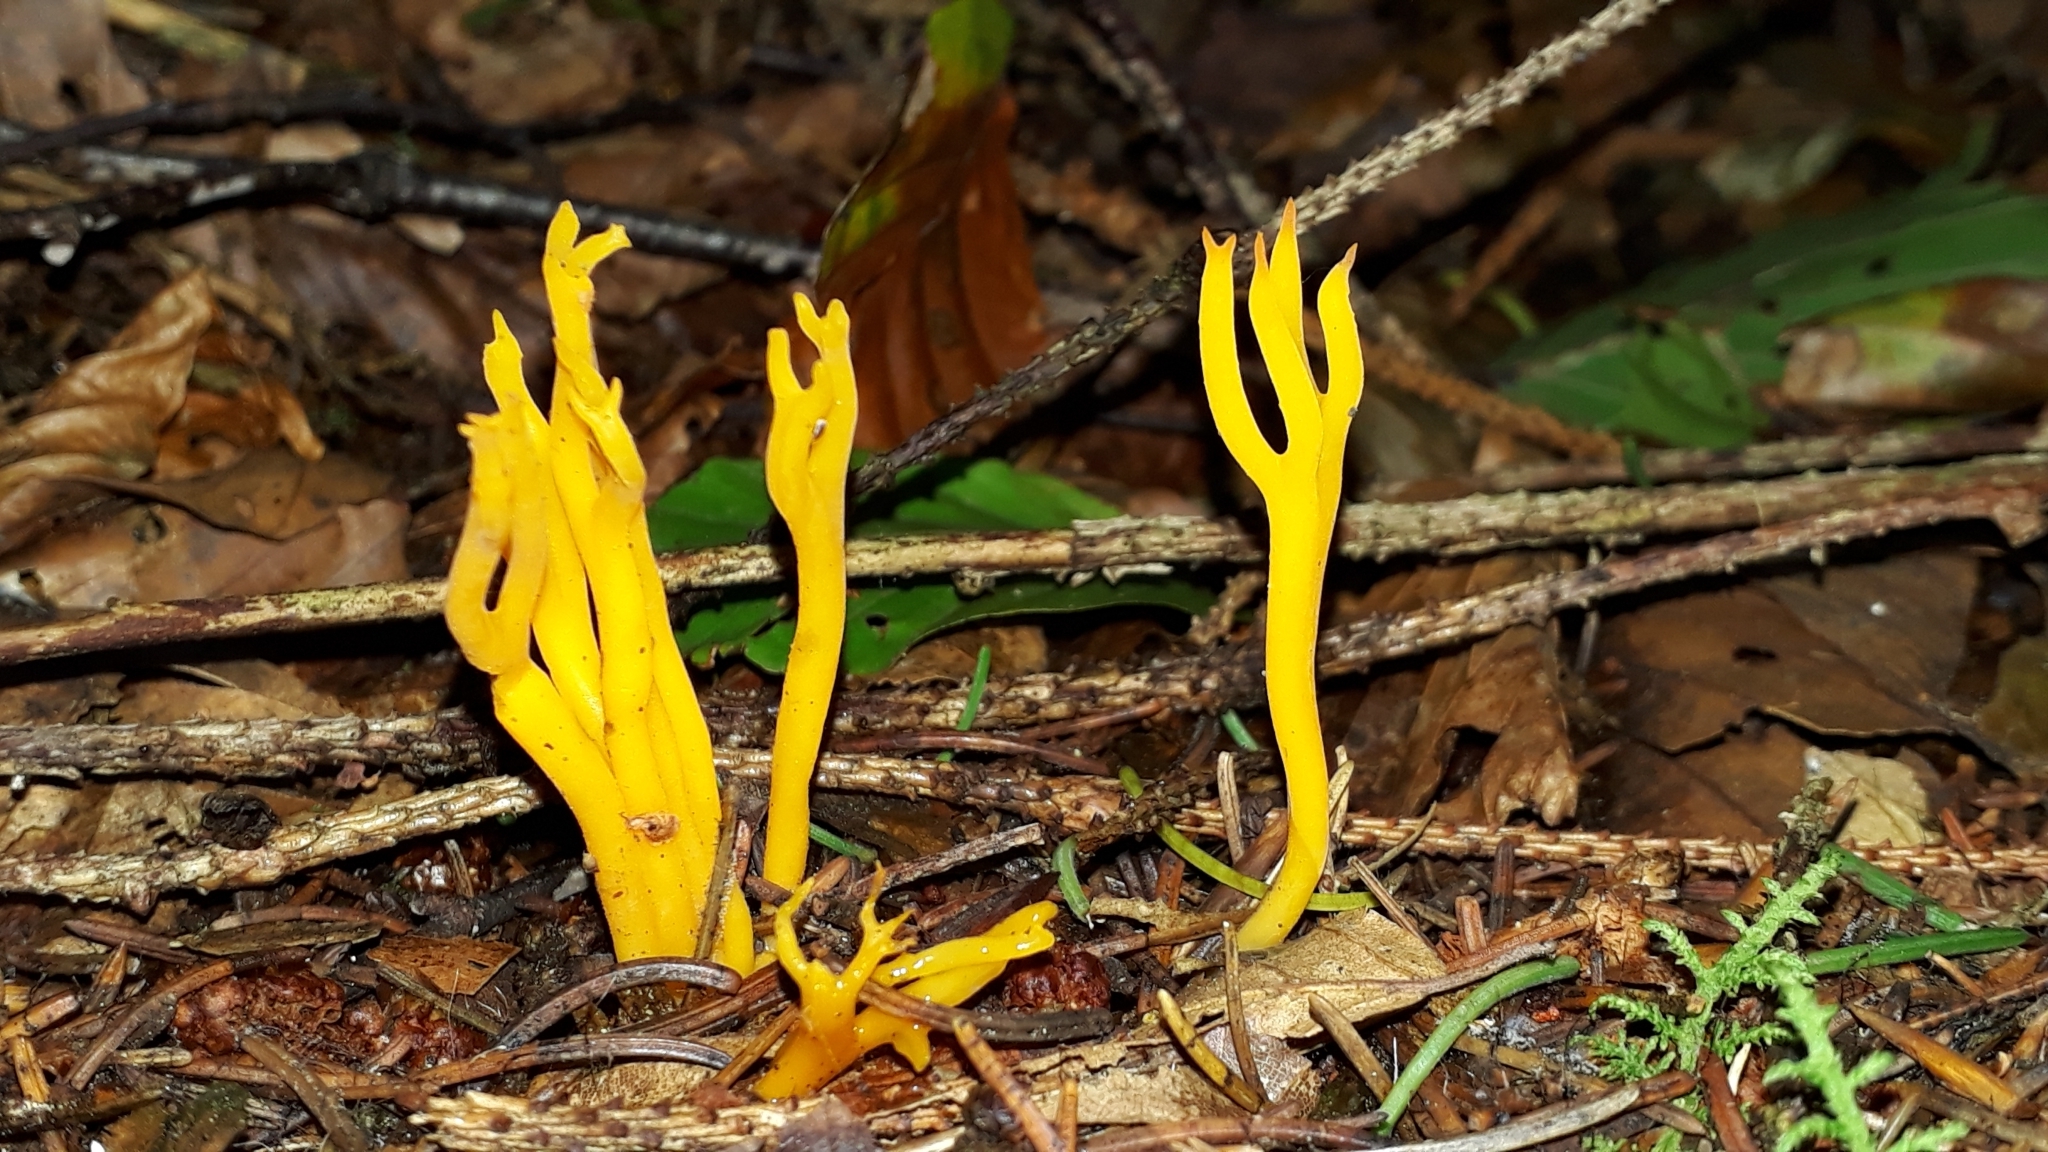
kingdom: Fungi
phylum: Basidiomycota
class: Dacrymycetes
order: Dacrymycetales
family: Dacrymycetaceae
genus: Calocera
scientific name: Calocera viscosa
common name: Yellow stagshorn
